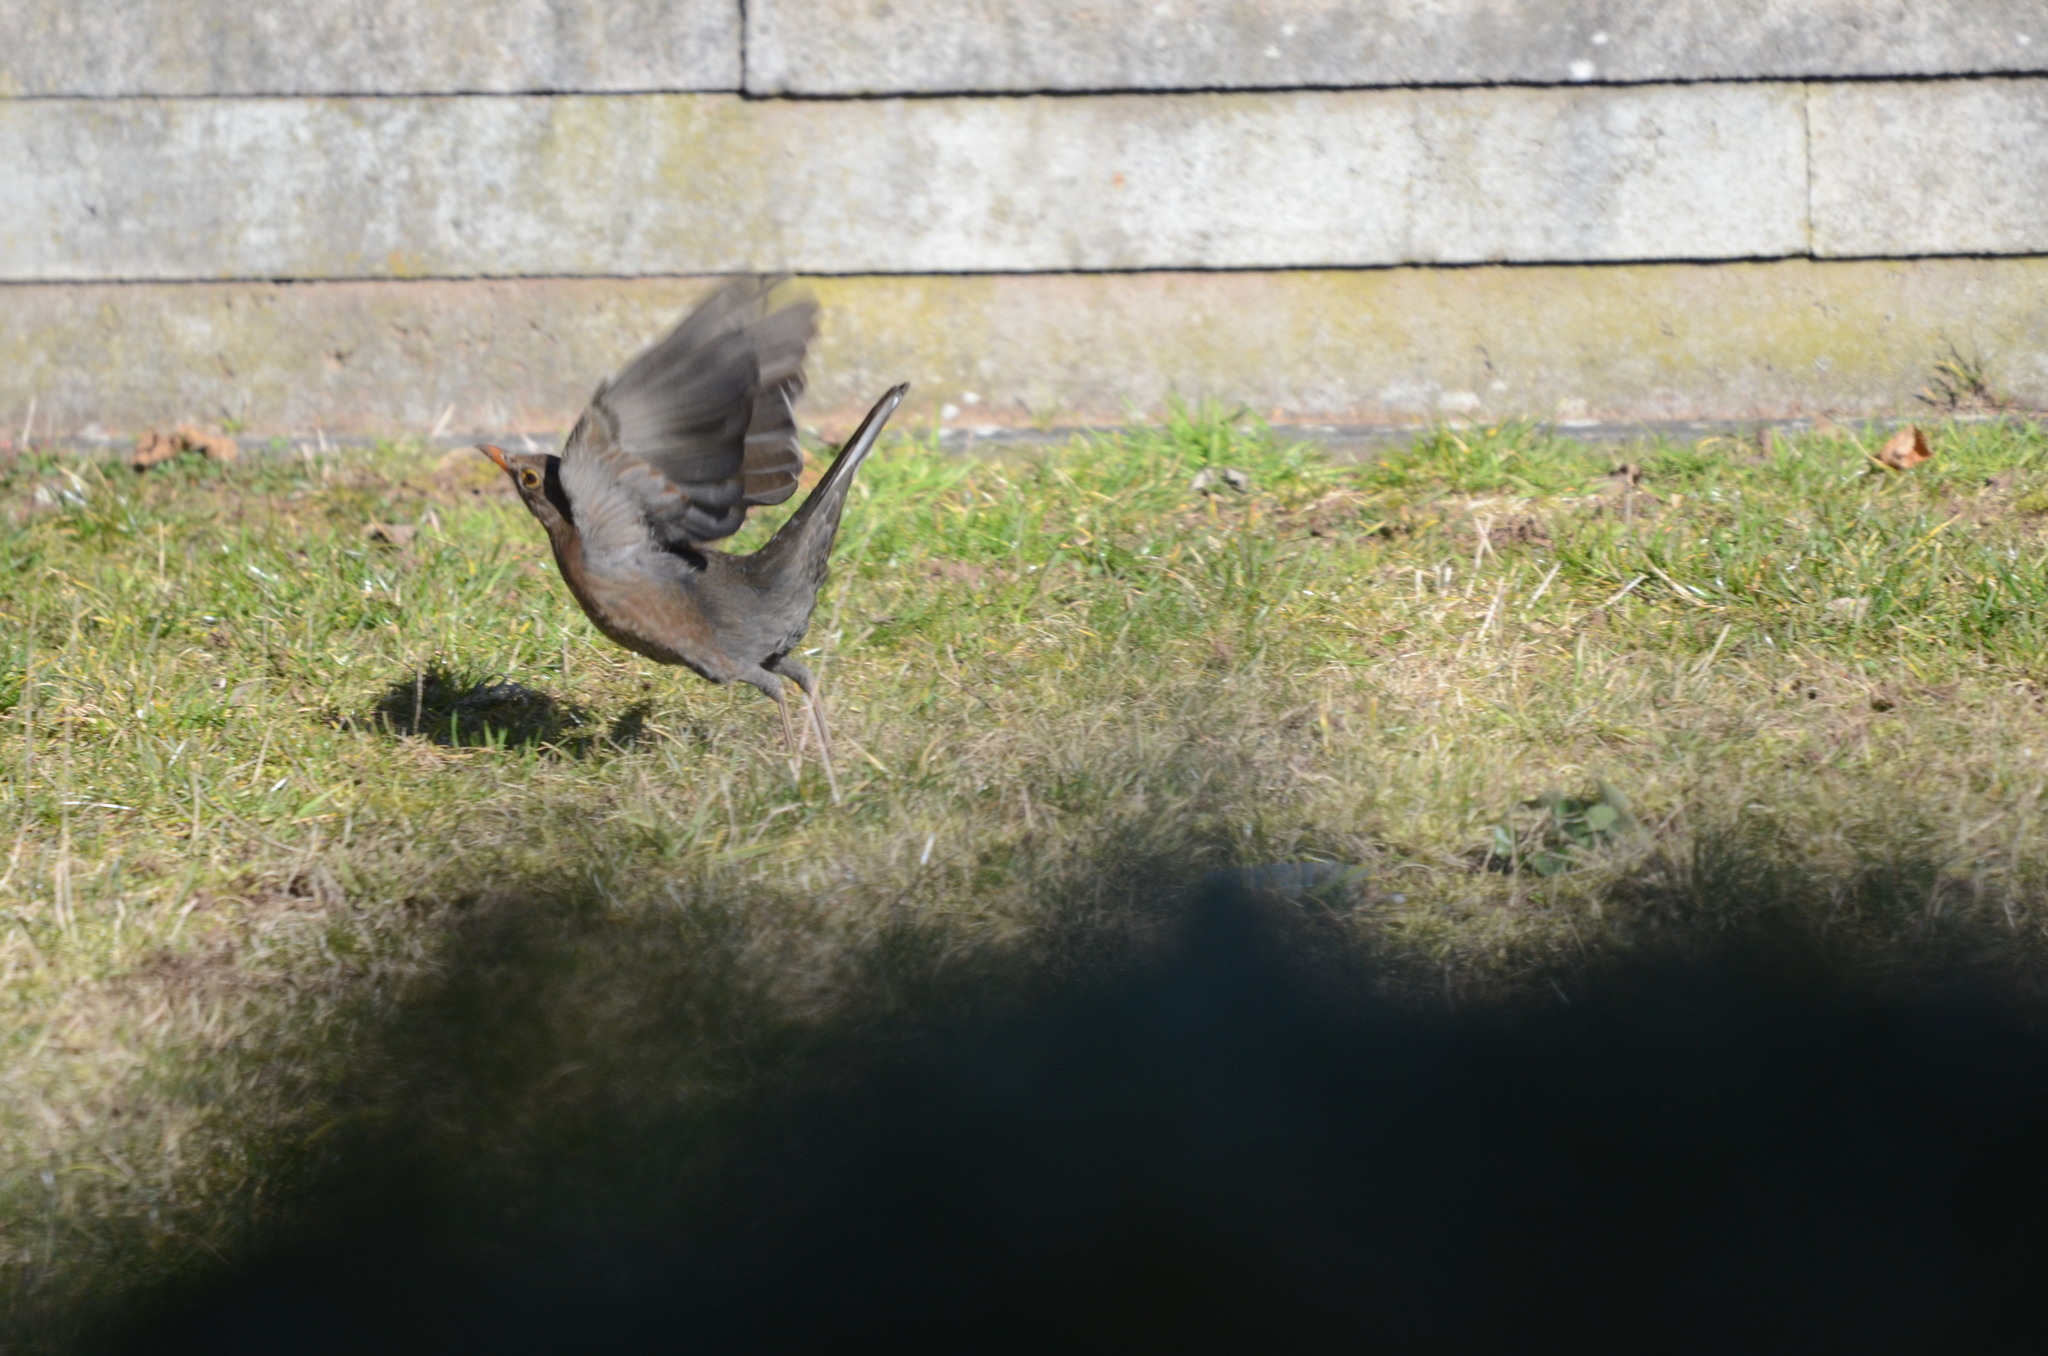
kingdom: Animalia
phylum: Chordata
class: Aves
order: Passeriformes
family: Turdidae
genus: Turdus
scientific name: Turdus merula
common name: Common blackbird
